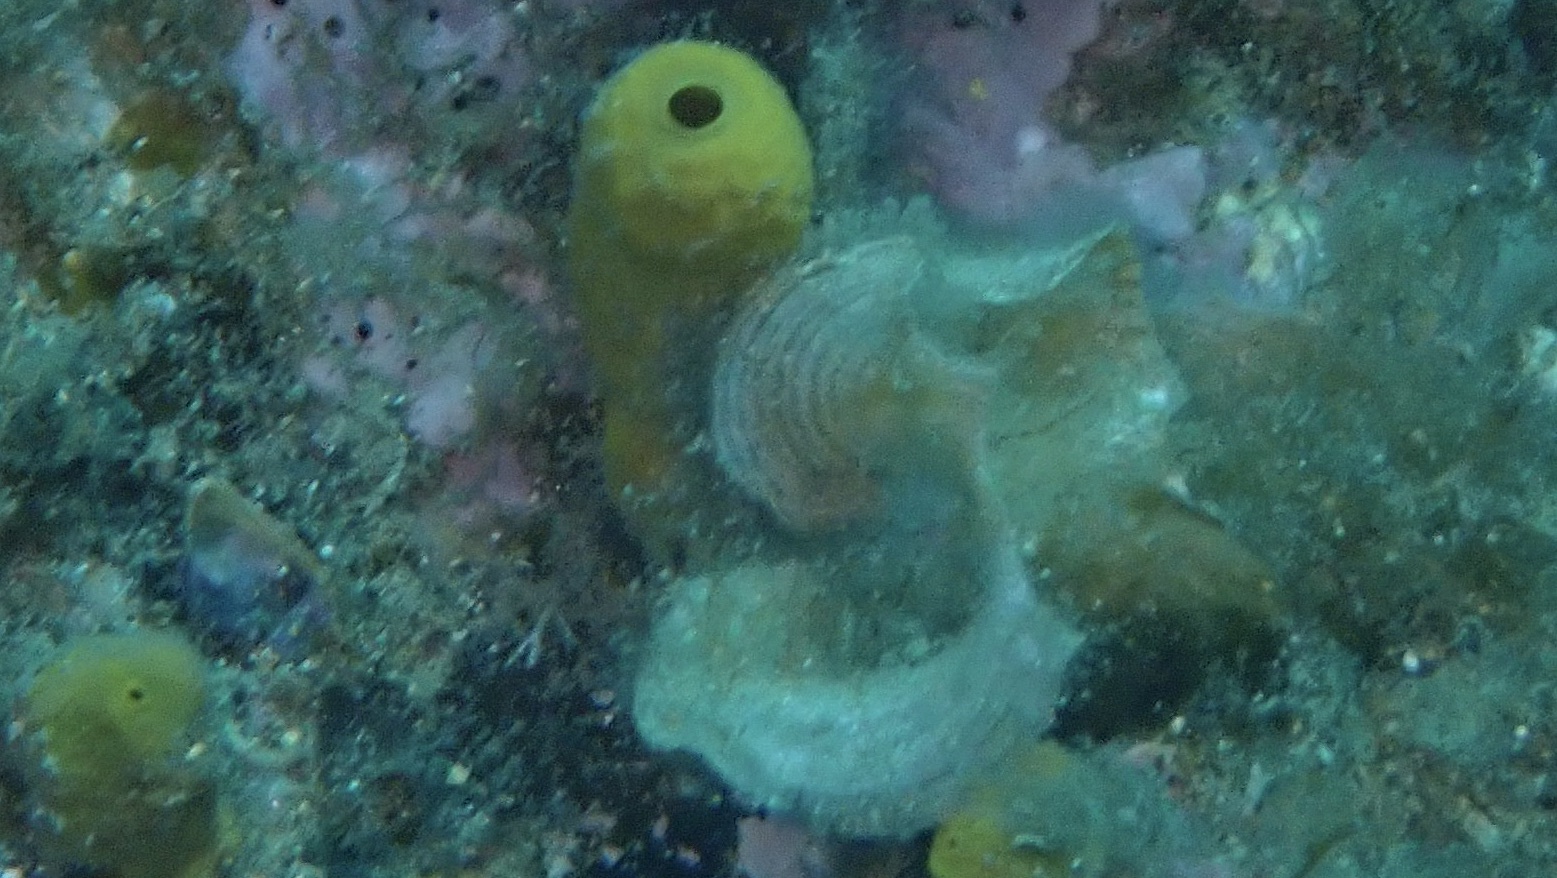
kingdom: Animalia
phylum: Porifera
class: Demospongiae
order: Verongiida
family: Aplysinidae
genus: Aplysina
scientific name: Aplysina aerophoba
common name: Aureate sponge
